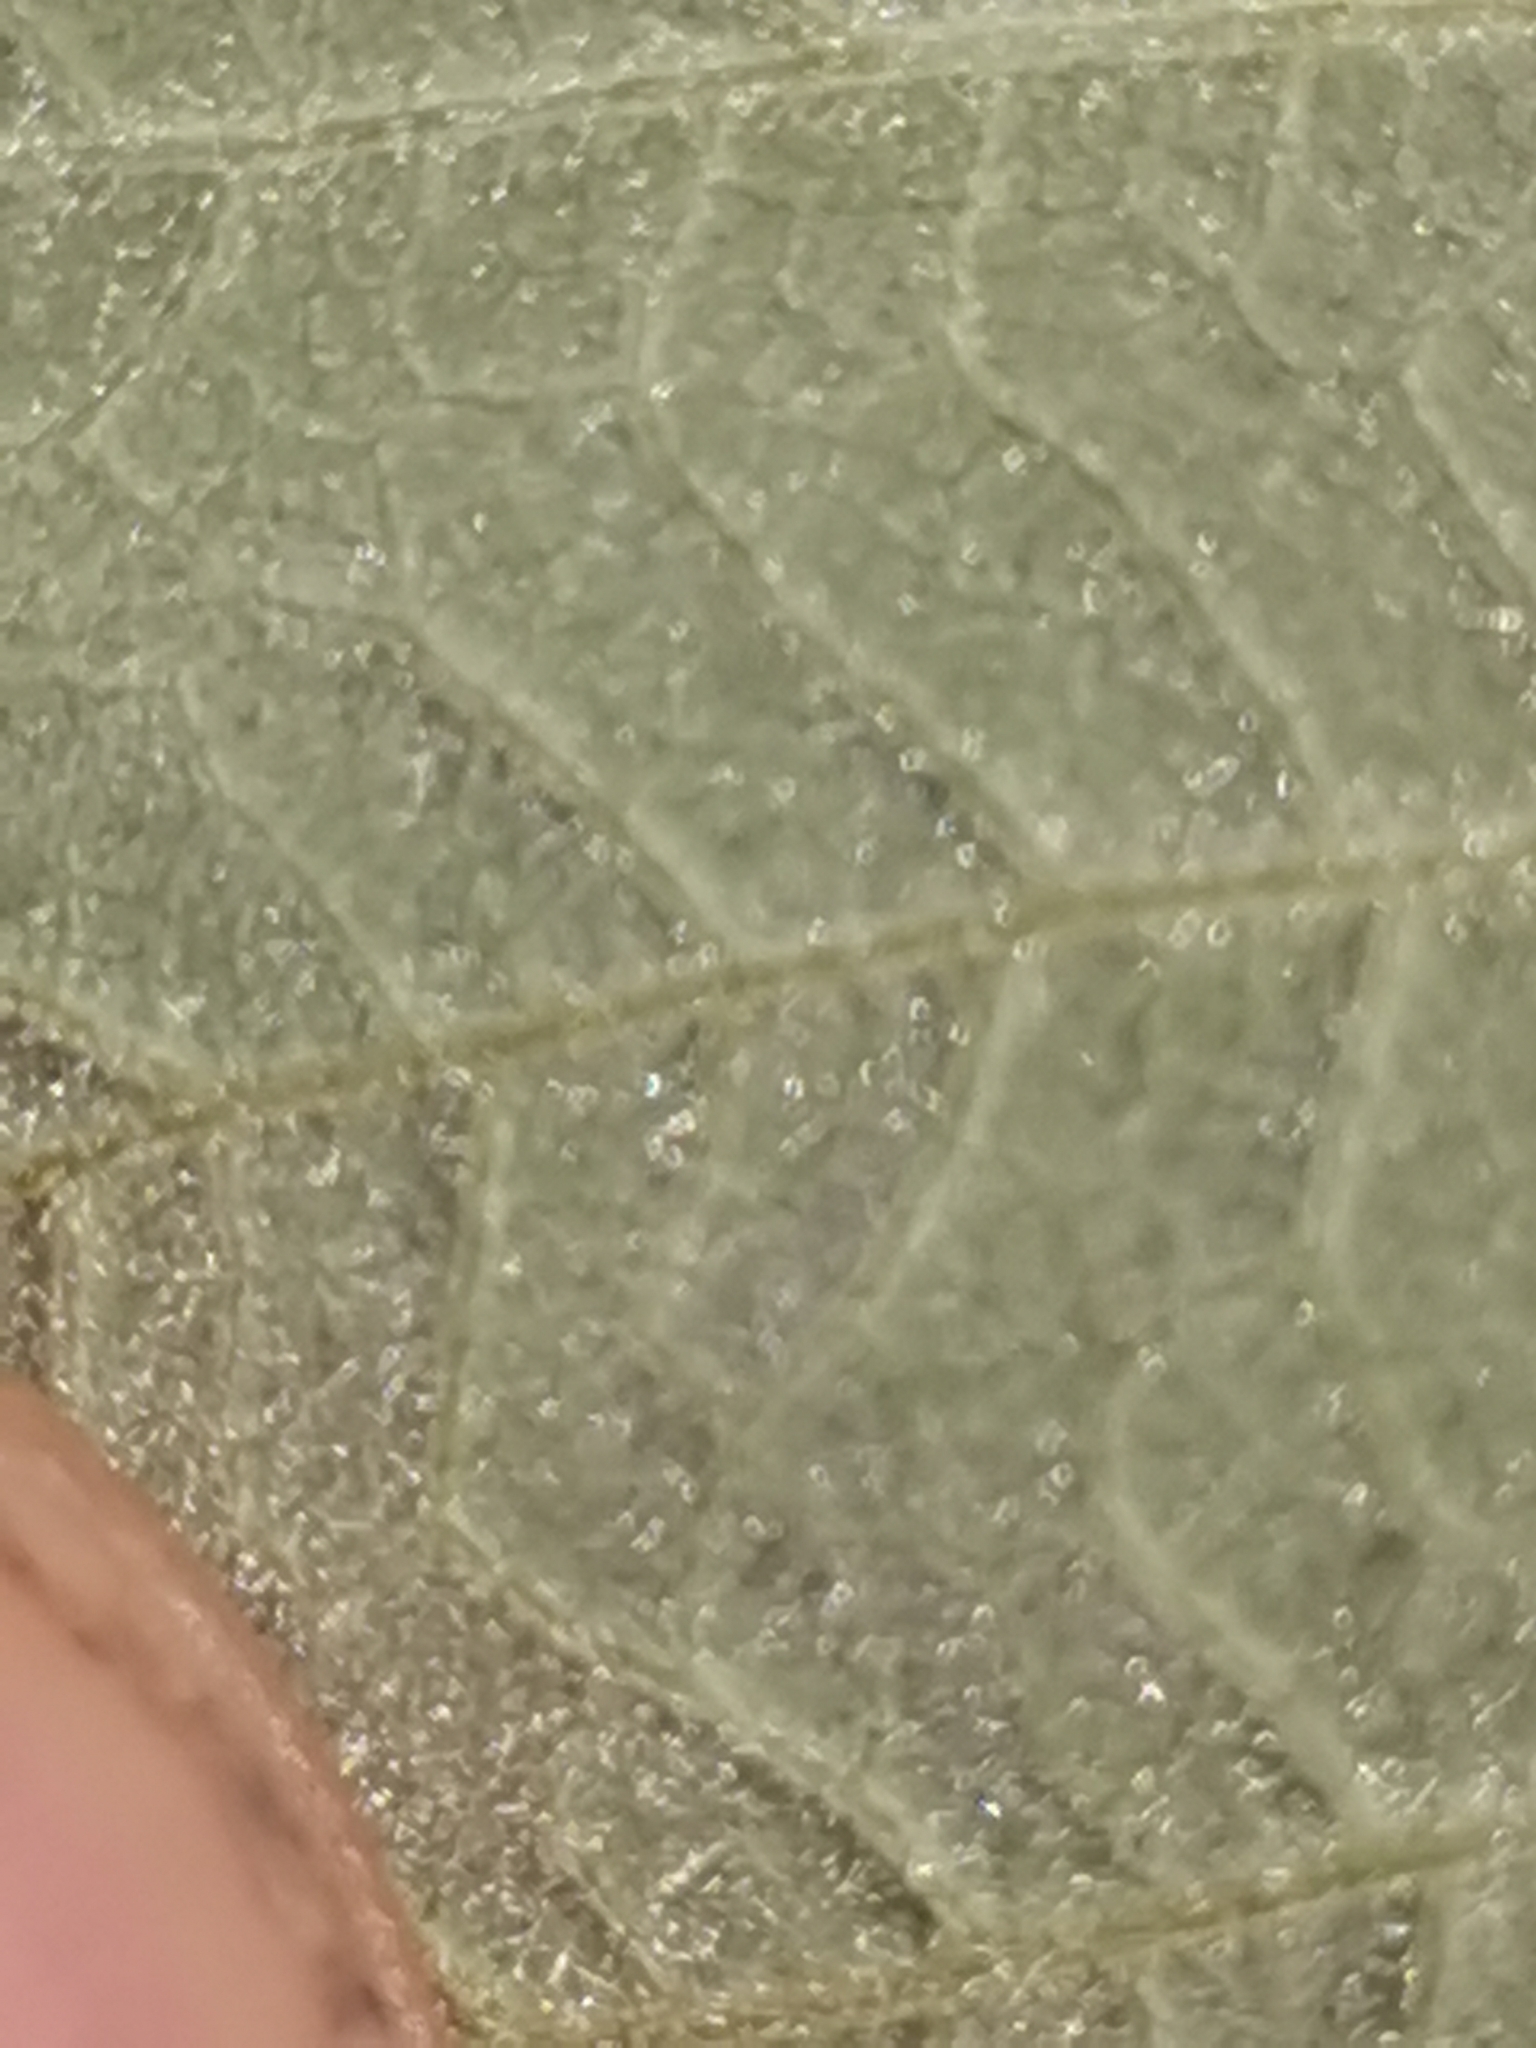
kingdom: Plantae
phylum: Tracheophyta
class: Magnoliopsida
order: Rosales
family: Rosaceae
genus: Rubus
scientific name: Rubus canescens
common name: Wooly blackberry
